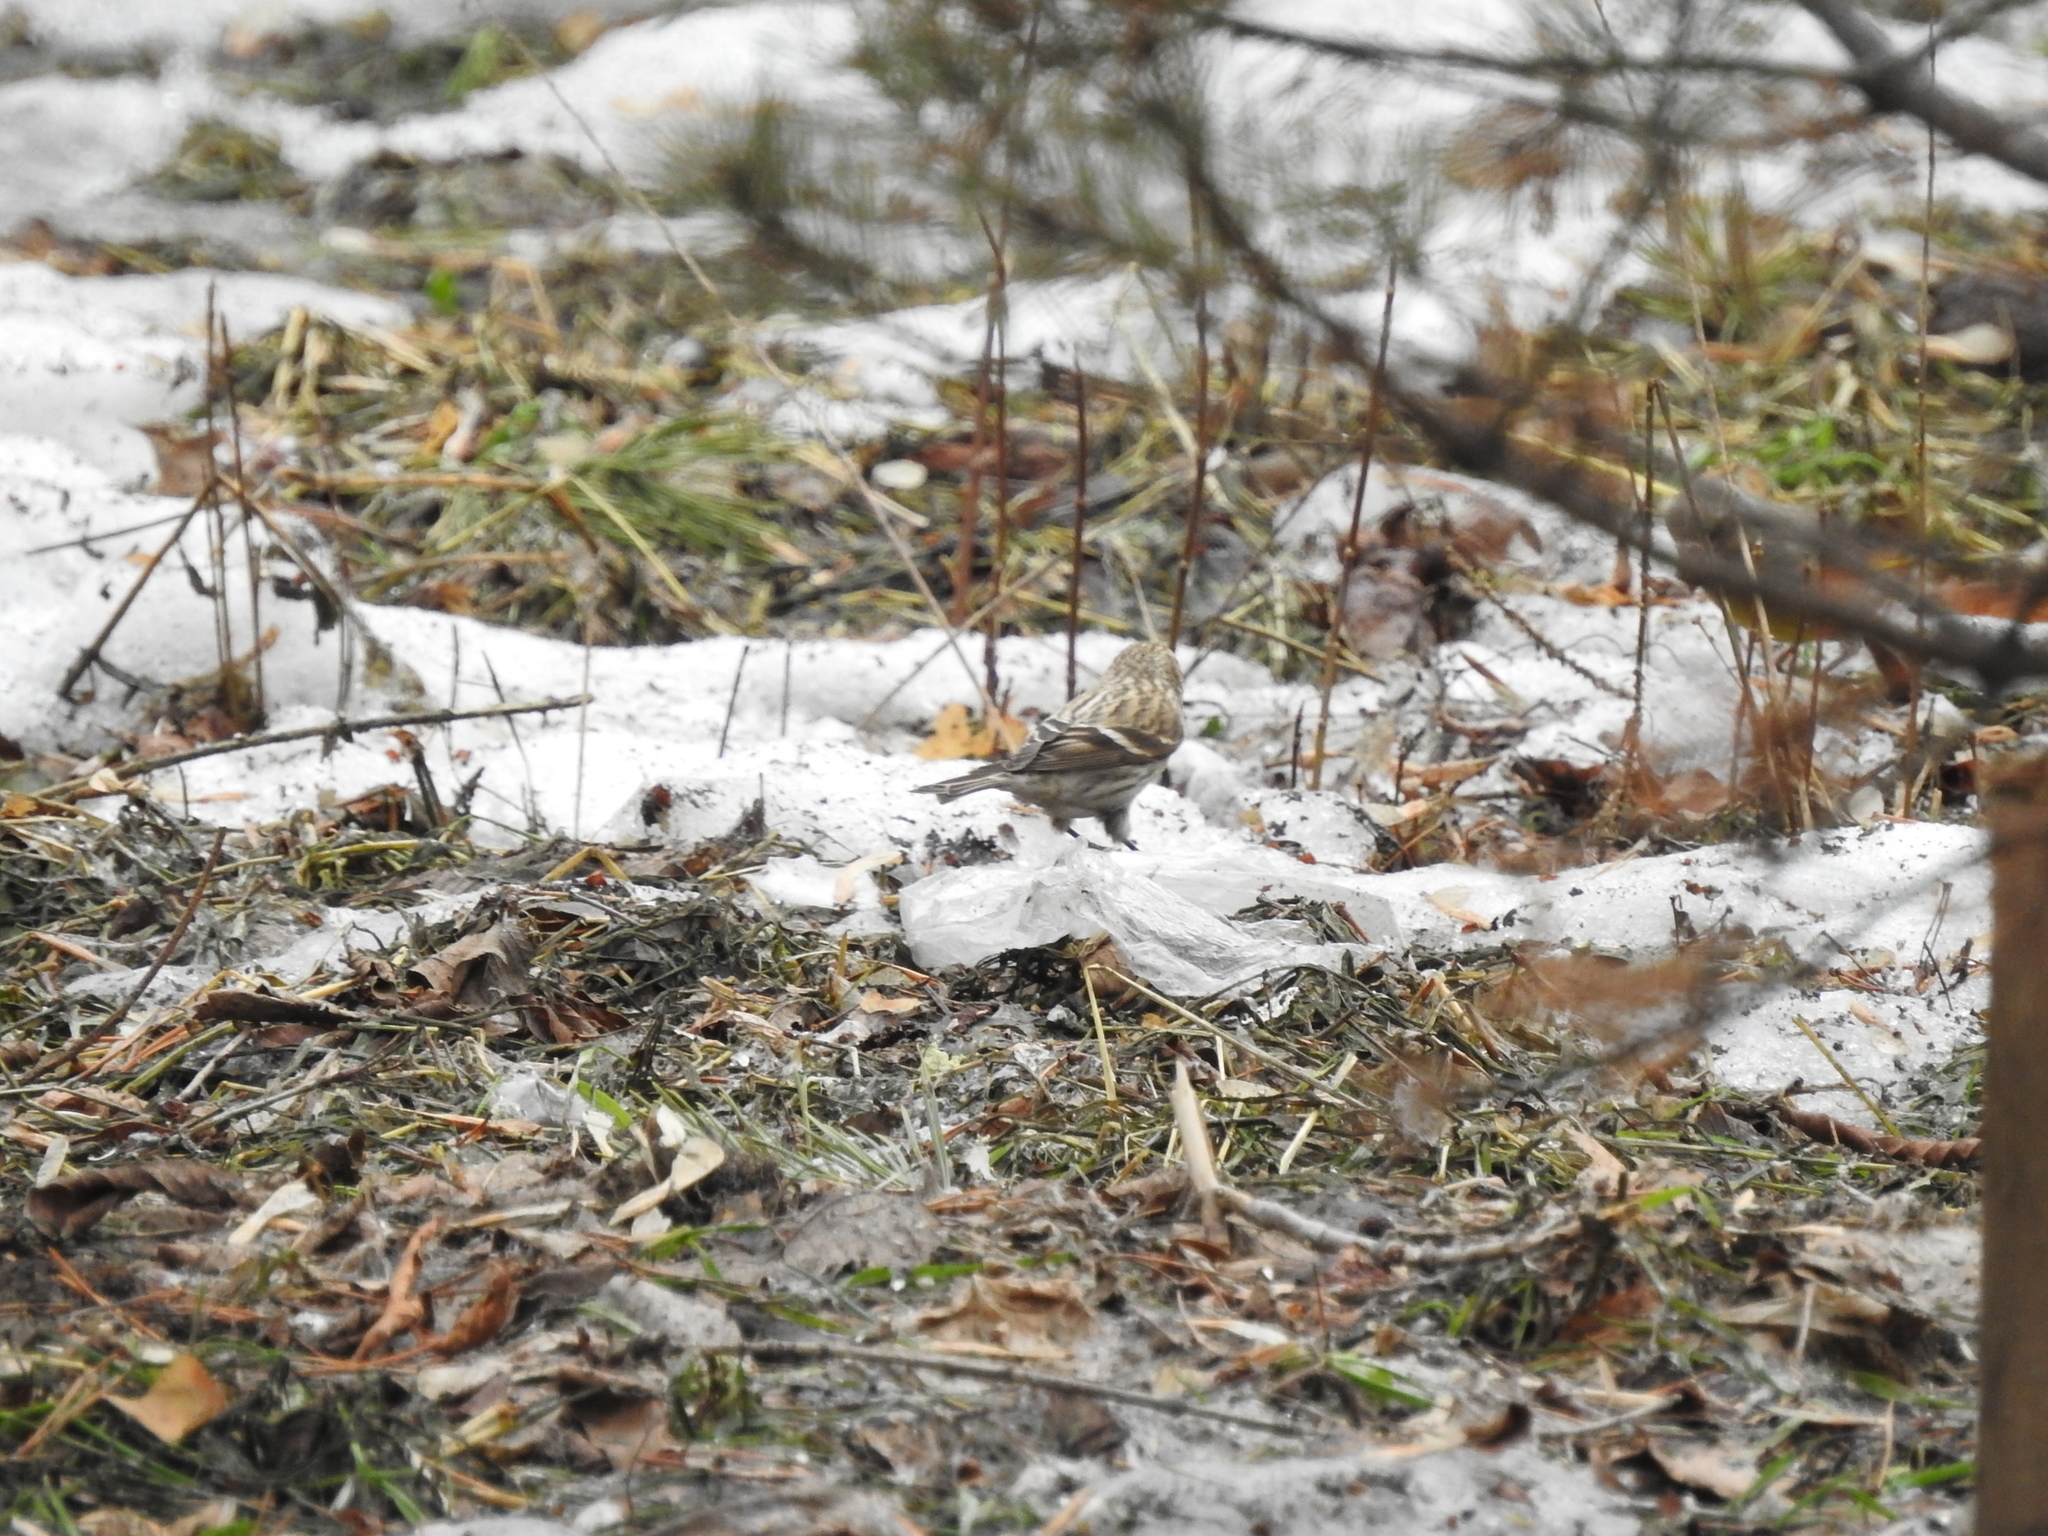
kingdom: Animalia
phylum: Chordata
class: Aves
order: Passeriformes
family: Fringillidae
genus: Acanthis
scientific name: Acanthis flammea
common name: Common redpoll
